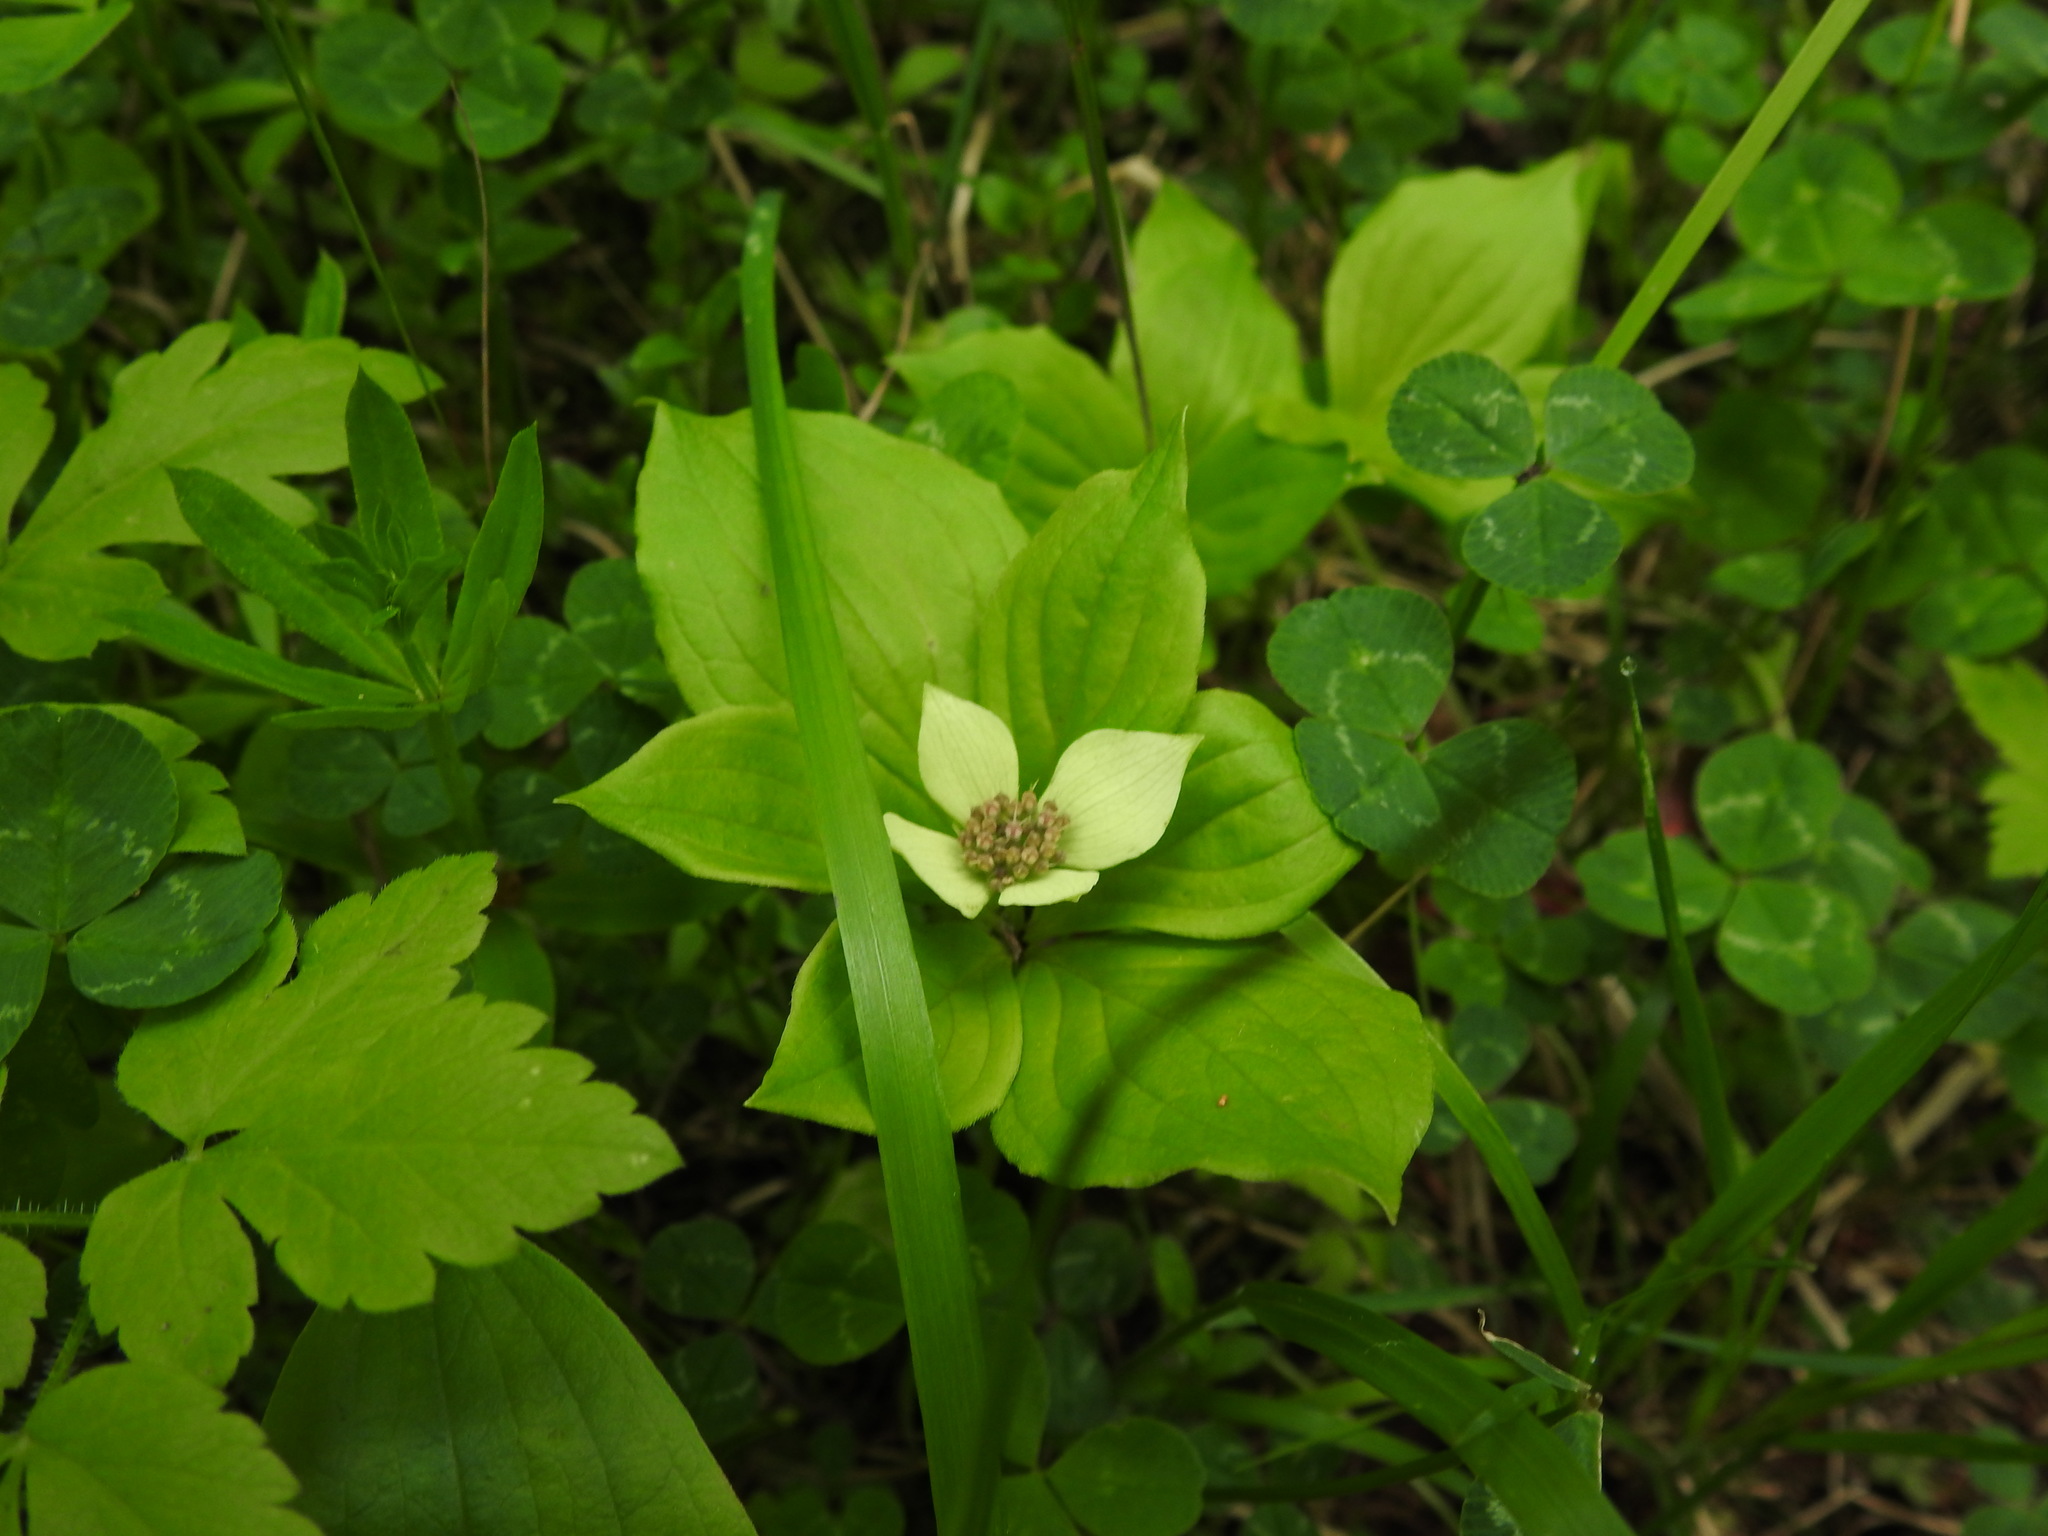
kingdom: Plantae
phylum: Tracheophyta
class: Magnoliopsida
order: Cornales
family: Cornaceae
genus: Cornus
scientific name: Cornus unalaschkensis
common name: Alaska bunchberry
